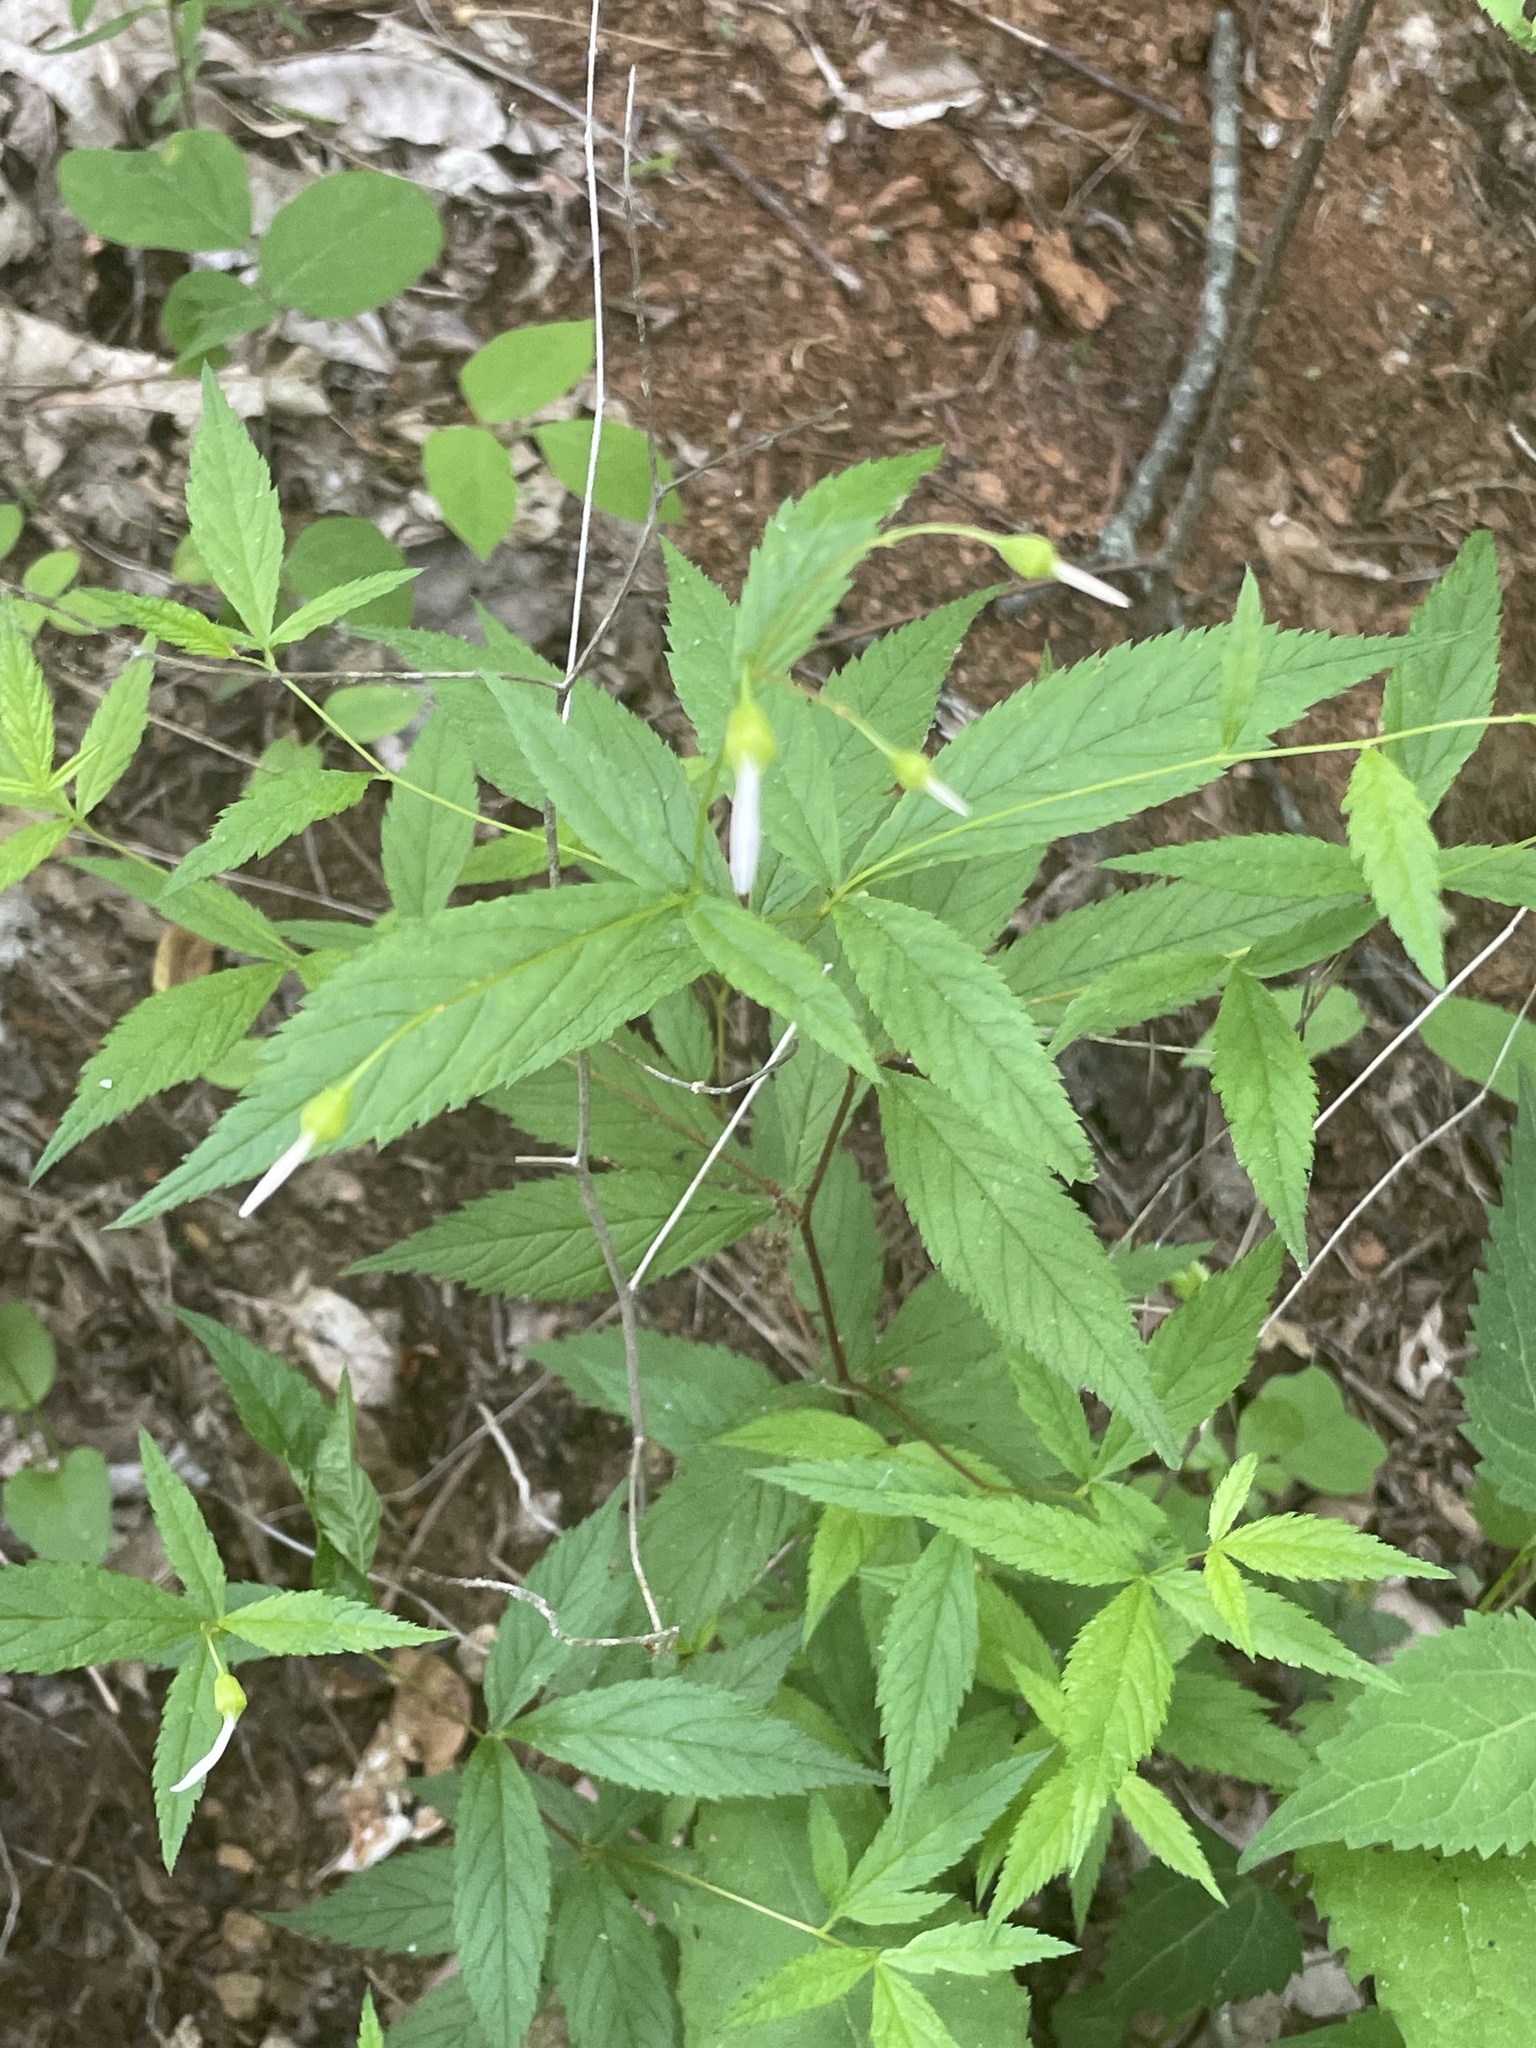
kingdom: Plantae
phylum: Tracheophyta
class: Magnoliopsida
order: Rosales
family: Rosaceae
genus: Gillenia
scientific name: Gillenia trifoliata
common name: Bowman's-root
